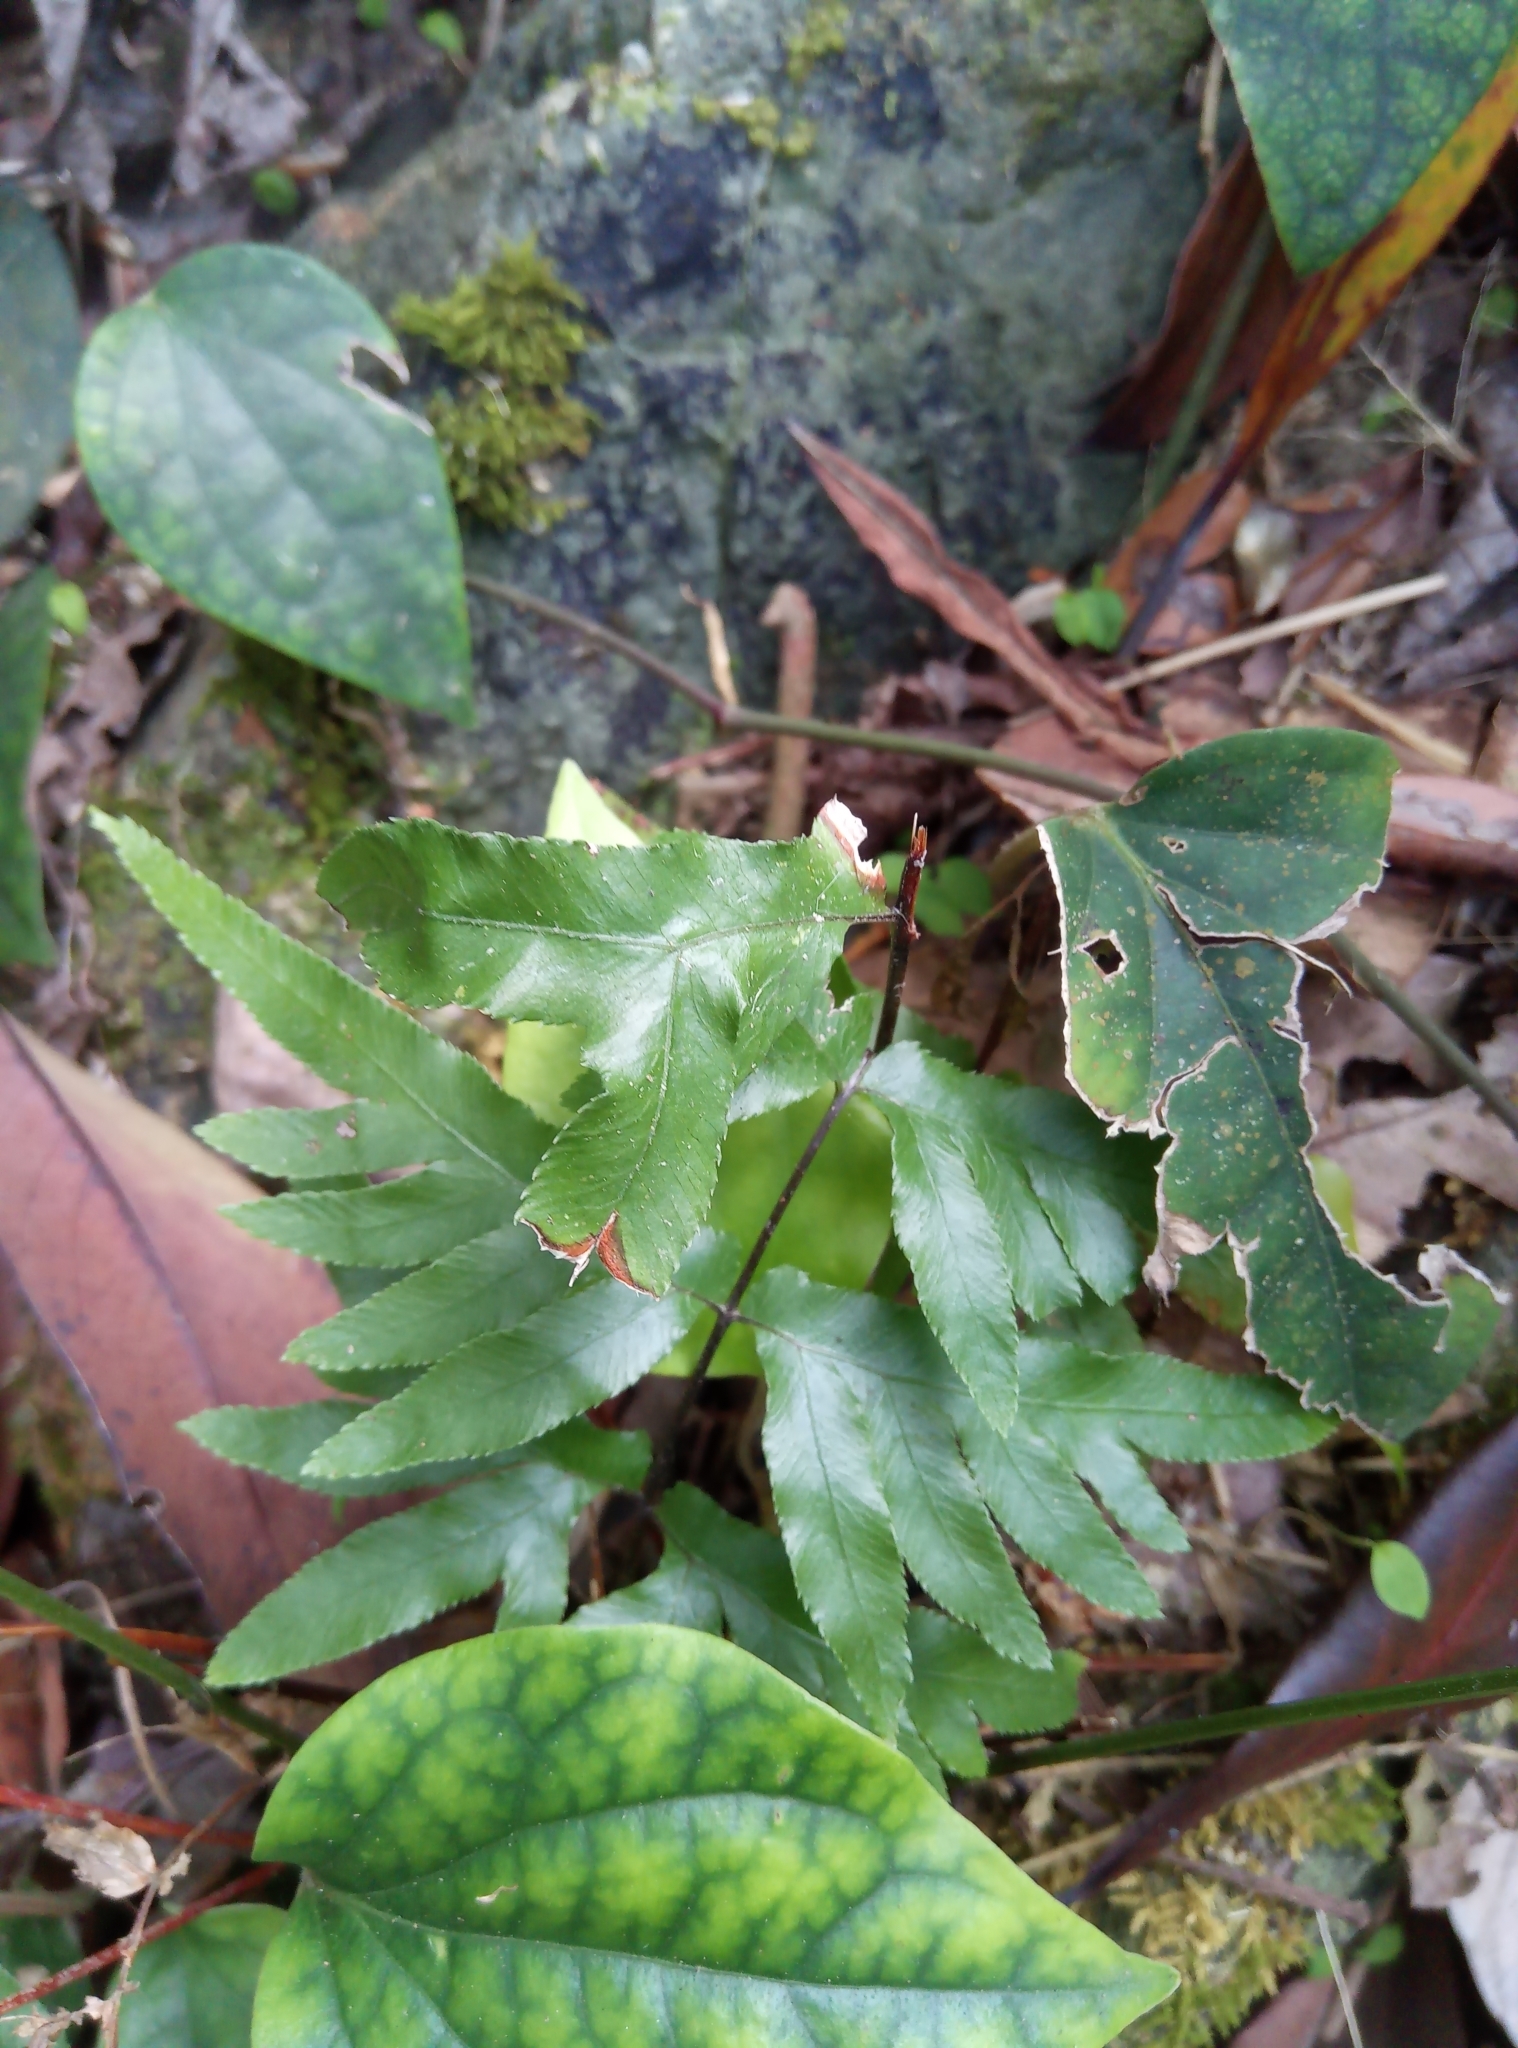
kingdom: Plantae
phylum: Tracheophyta
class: Polypodiopsida
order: Polypodiales
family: Pteridaceae
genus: Pteris
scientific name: Pteris semipinnata
